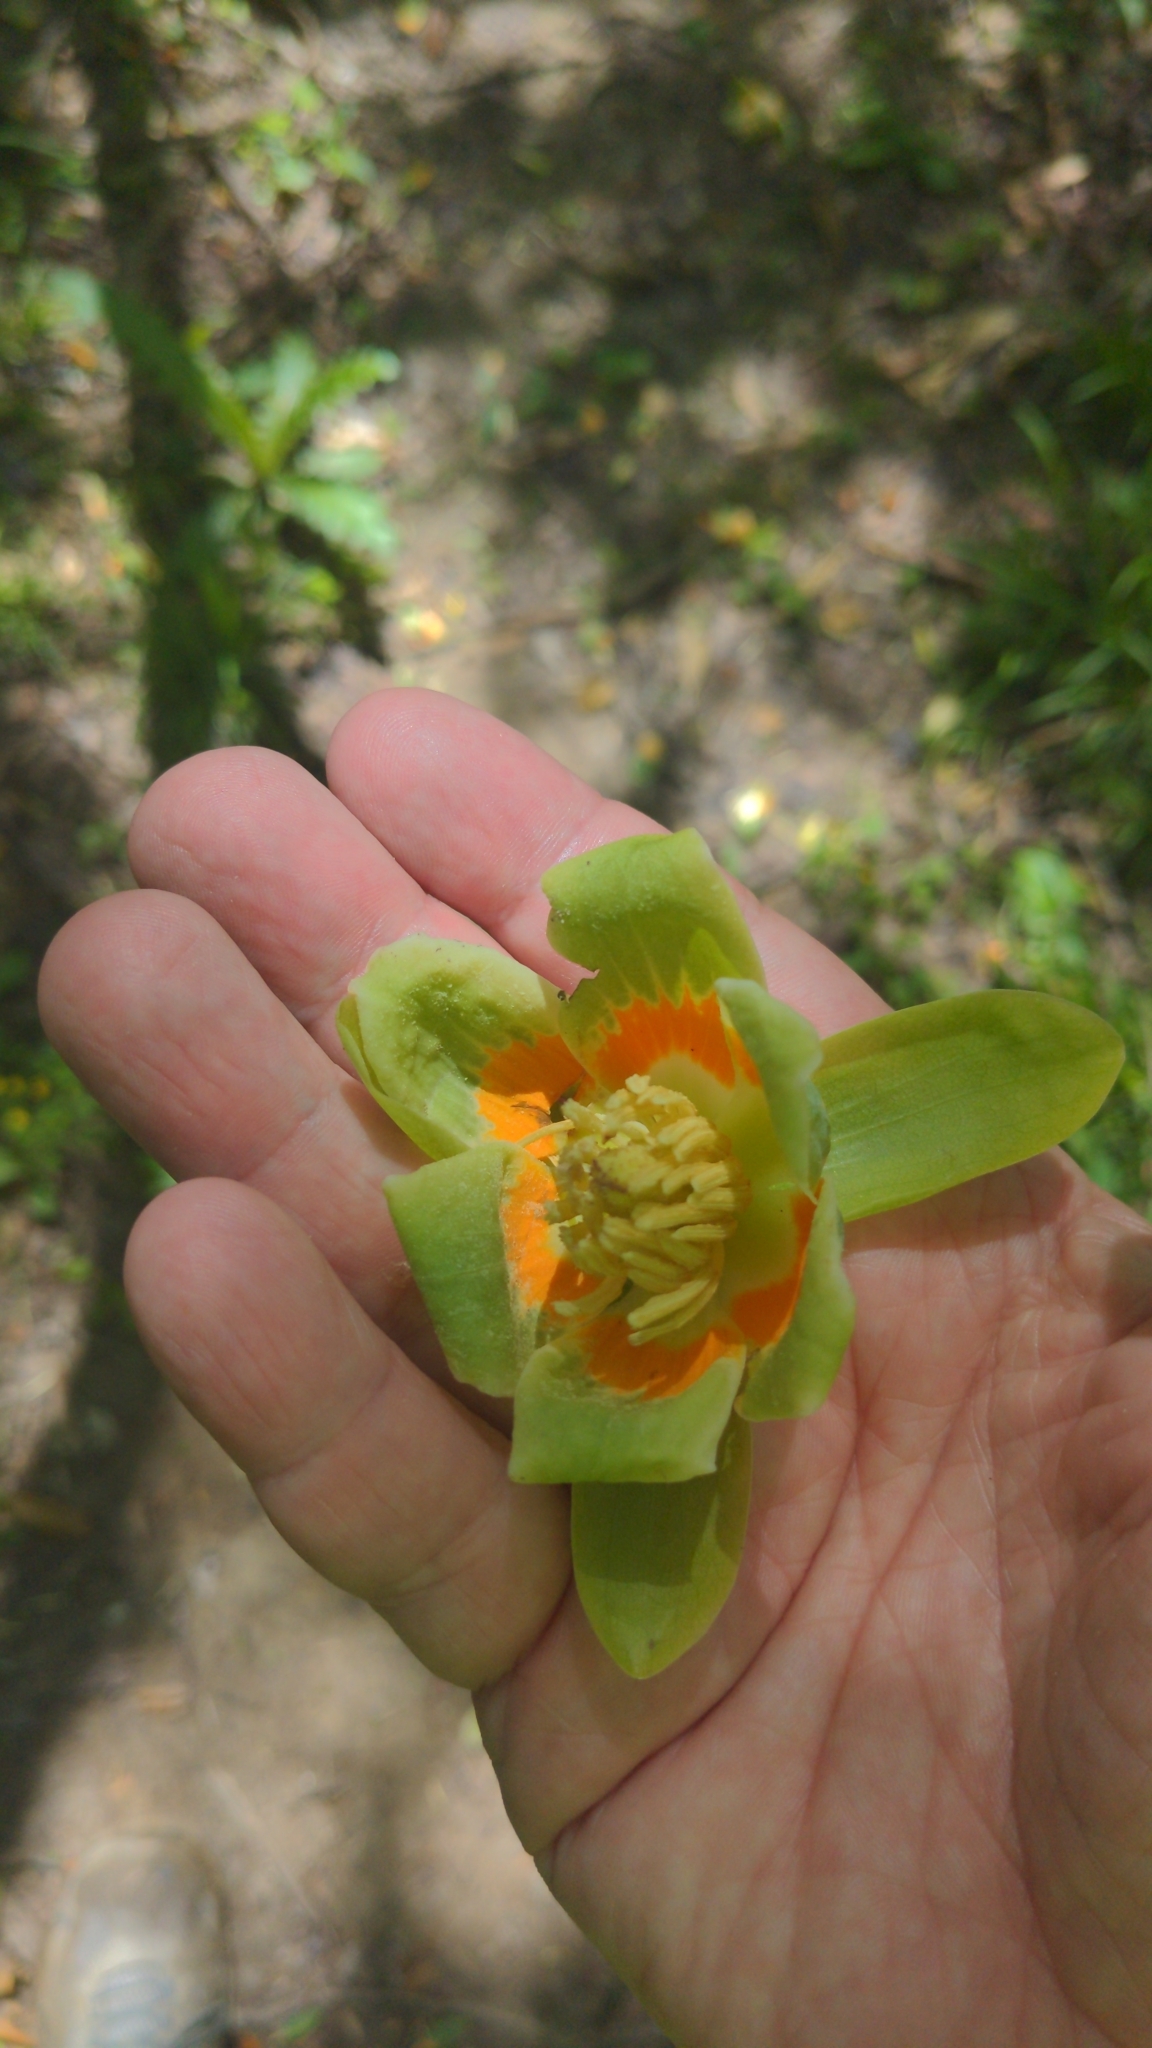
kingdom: Plantae
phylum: Tracheophyta
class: Magnoliopsida
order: Magnoliales
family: Magnoliaceae
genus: Liriodendron
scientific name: Liriodendron tulipifera
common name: Tulip tree
